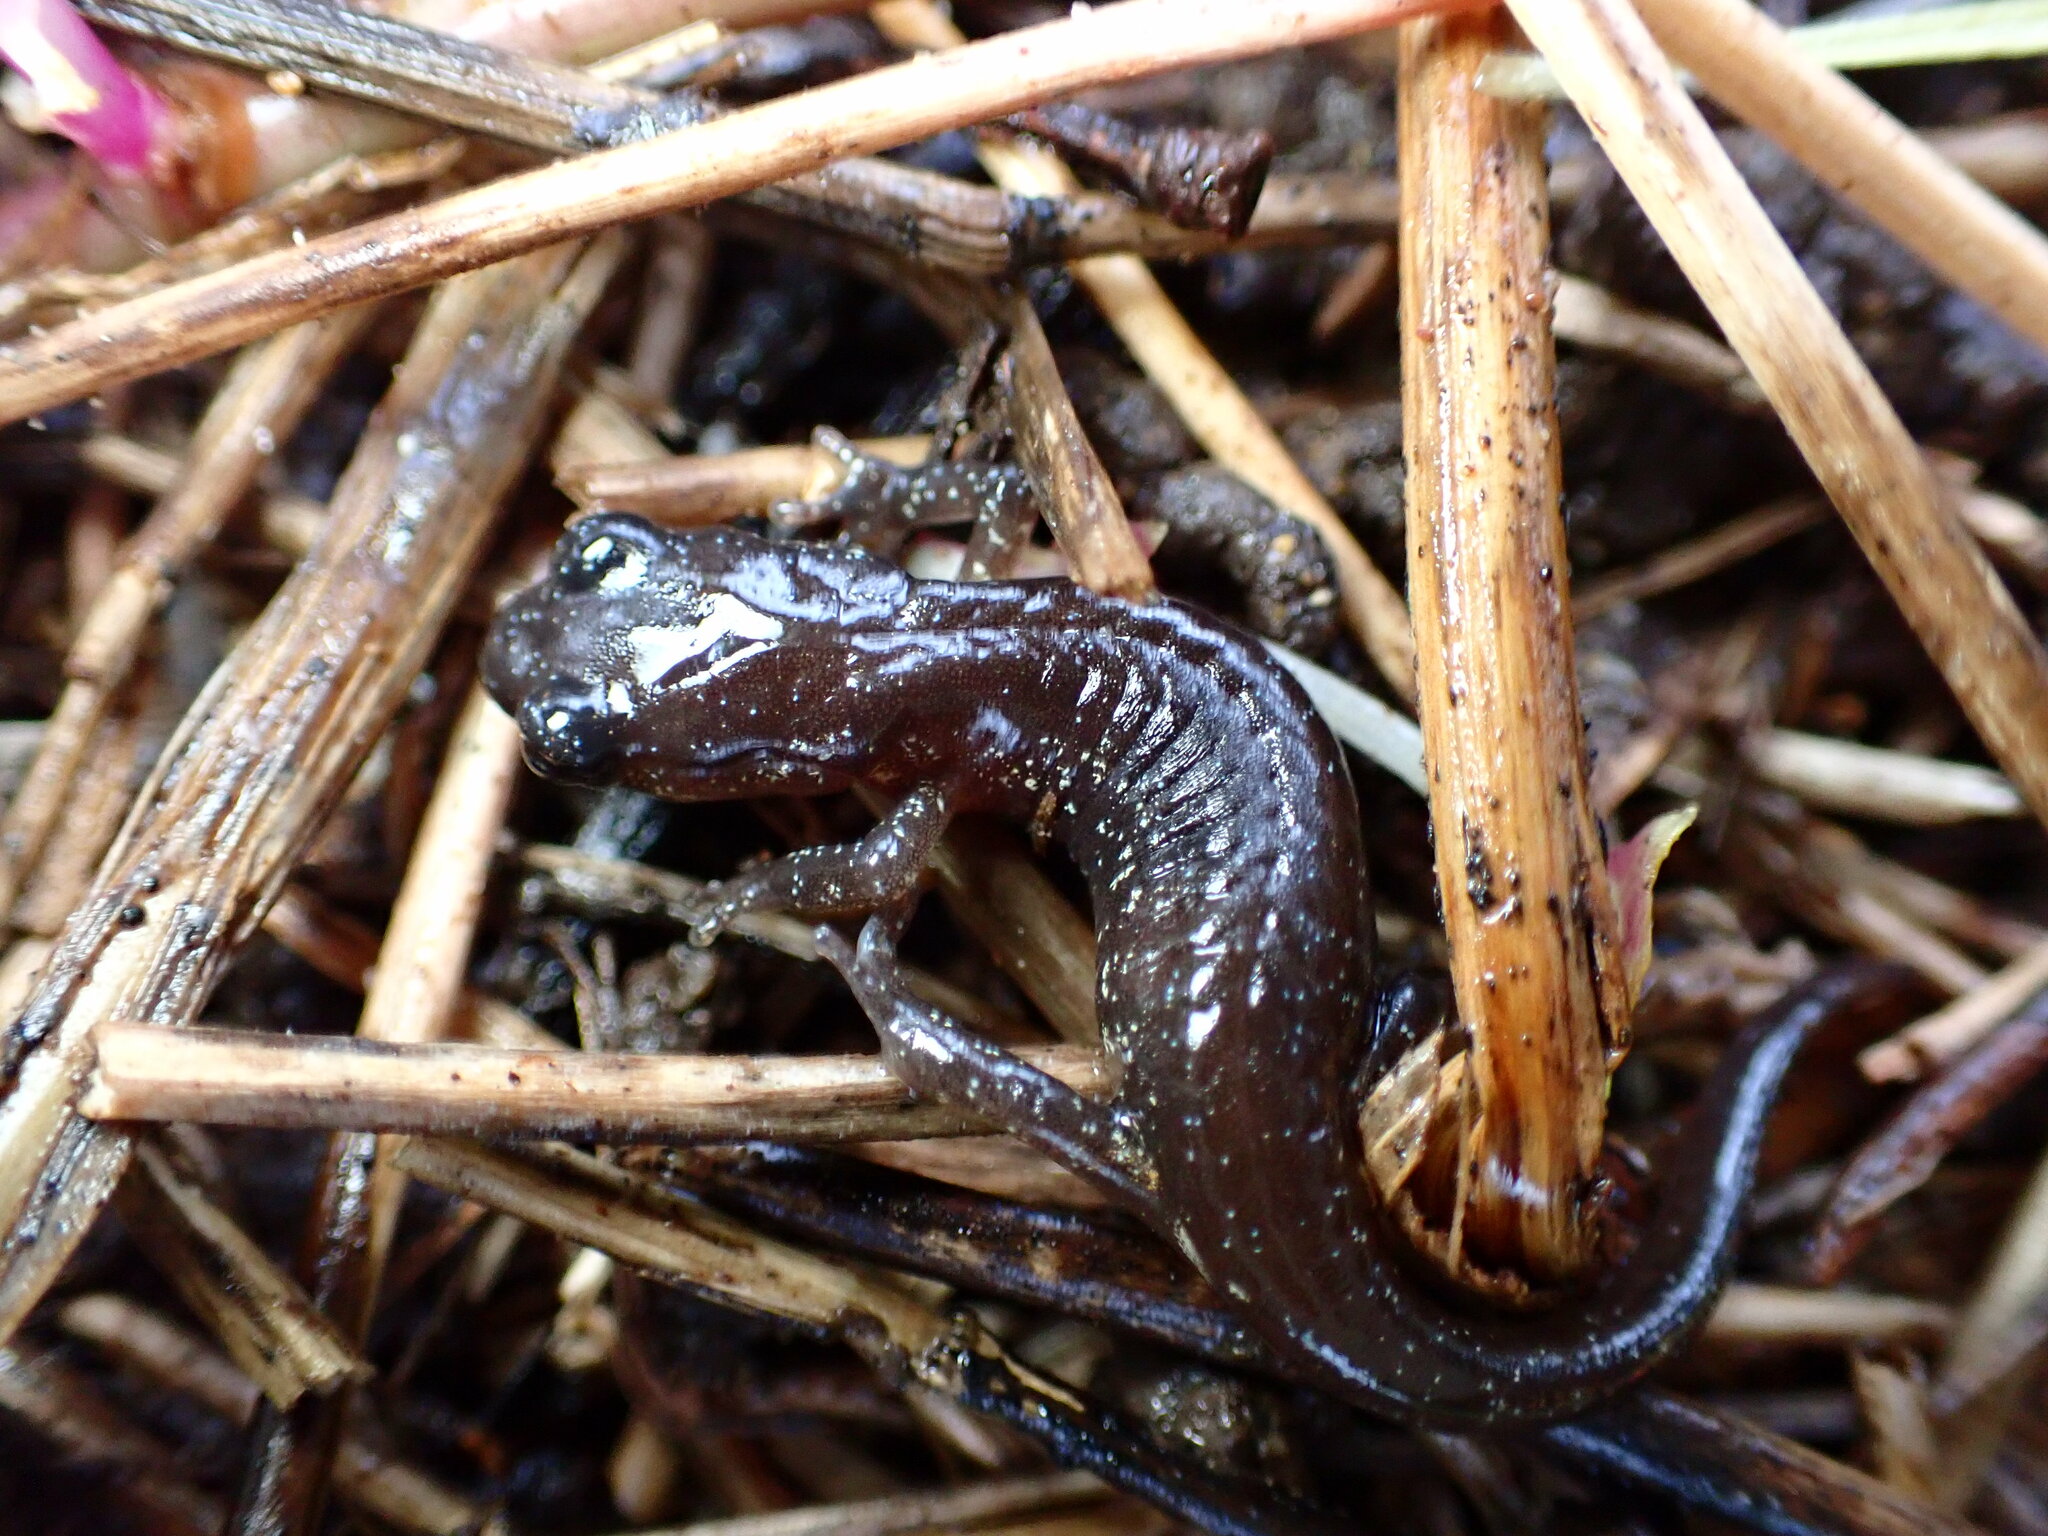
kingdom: Animalia
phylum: Chordata
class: Amphibia
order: Caudata
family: Plethodontidae
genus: Aneides
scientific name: Aneides lugubris
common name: Arboreal salamander
